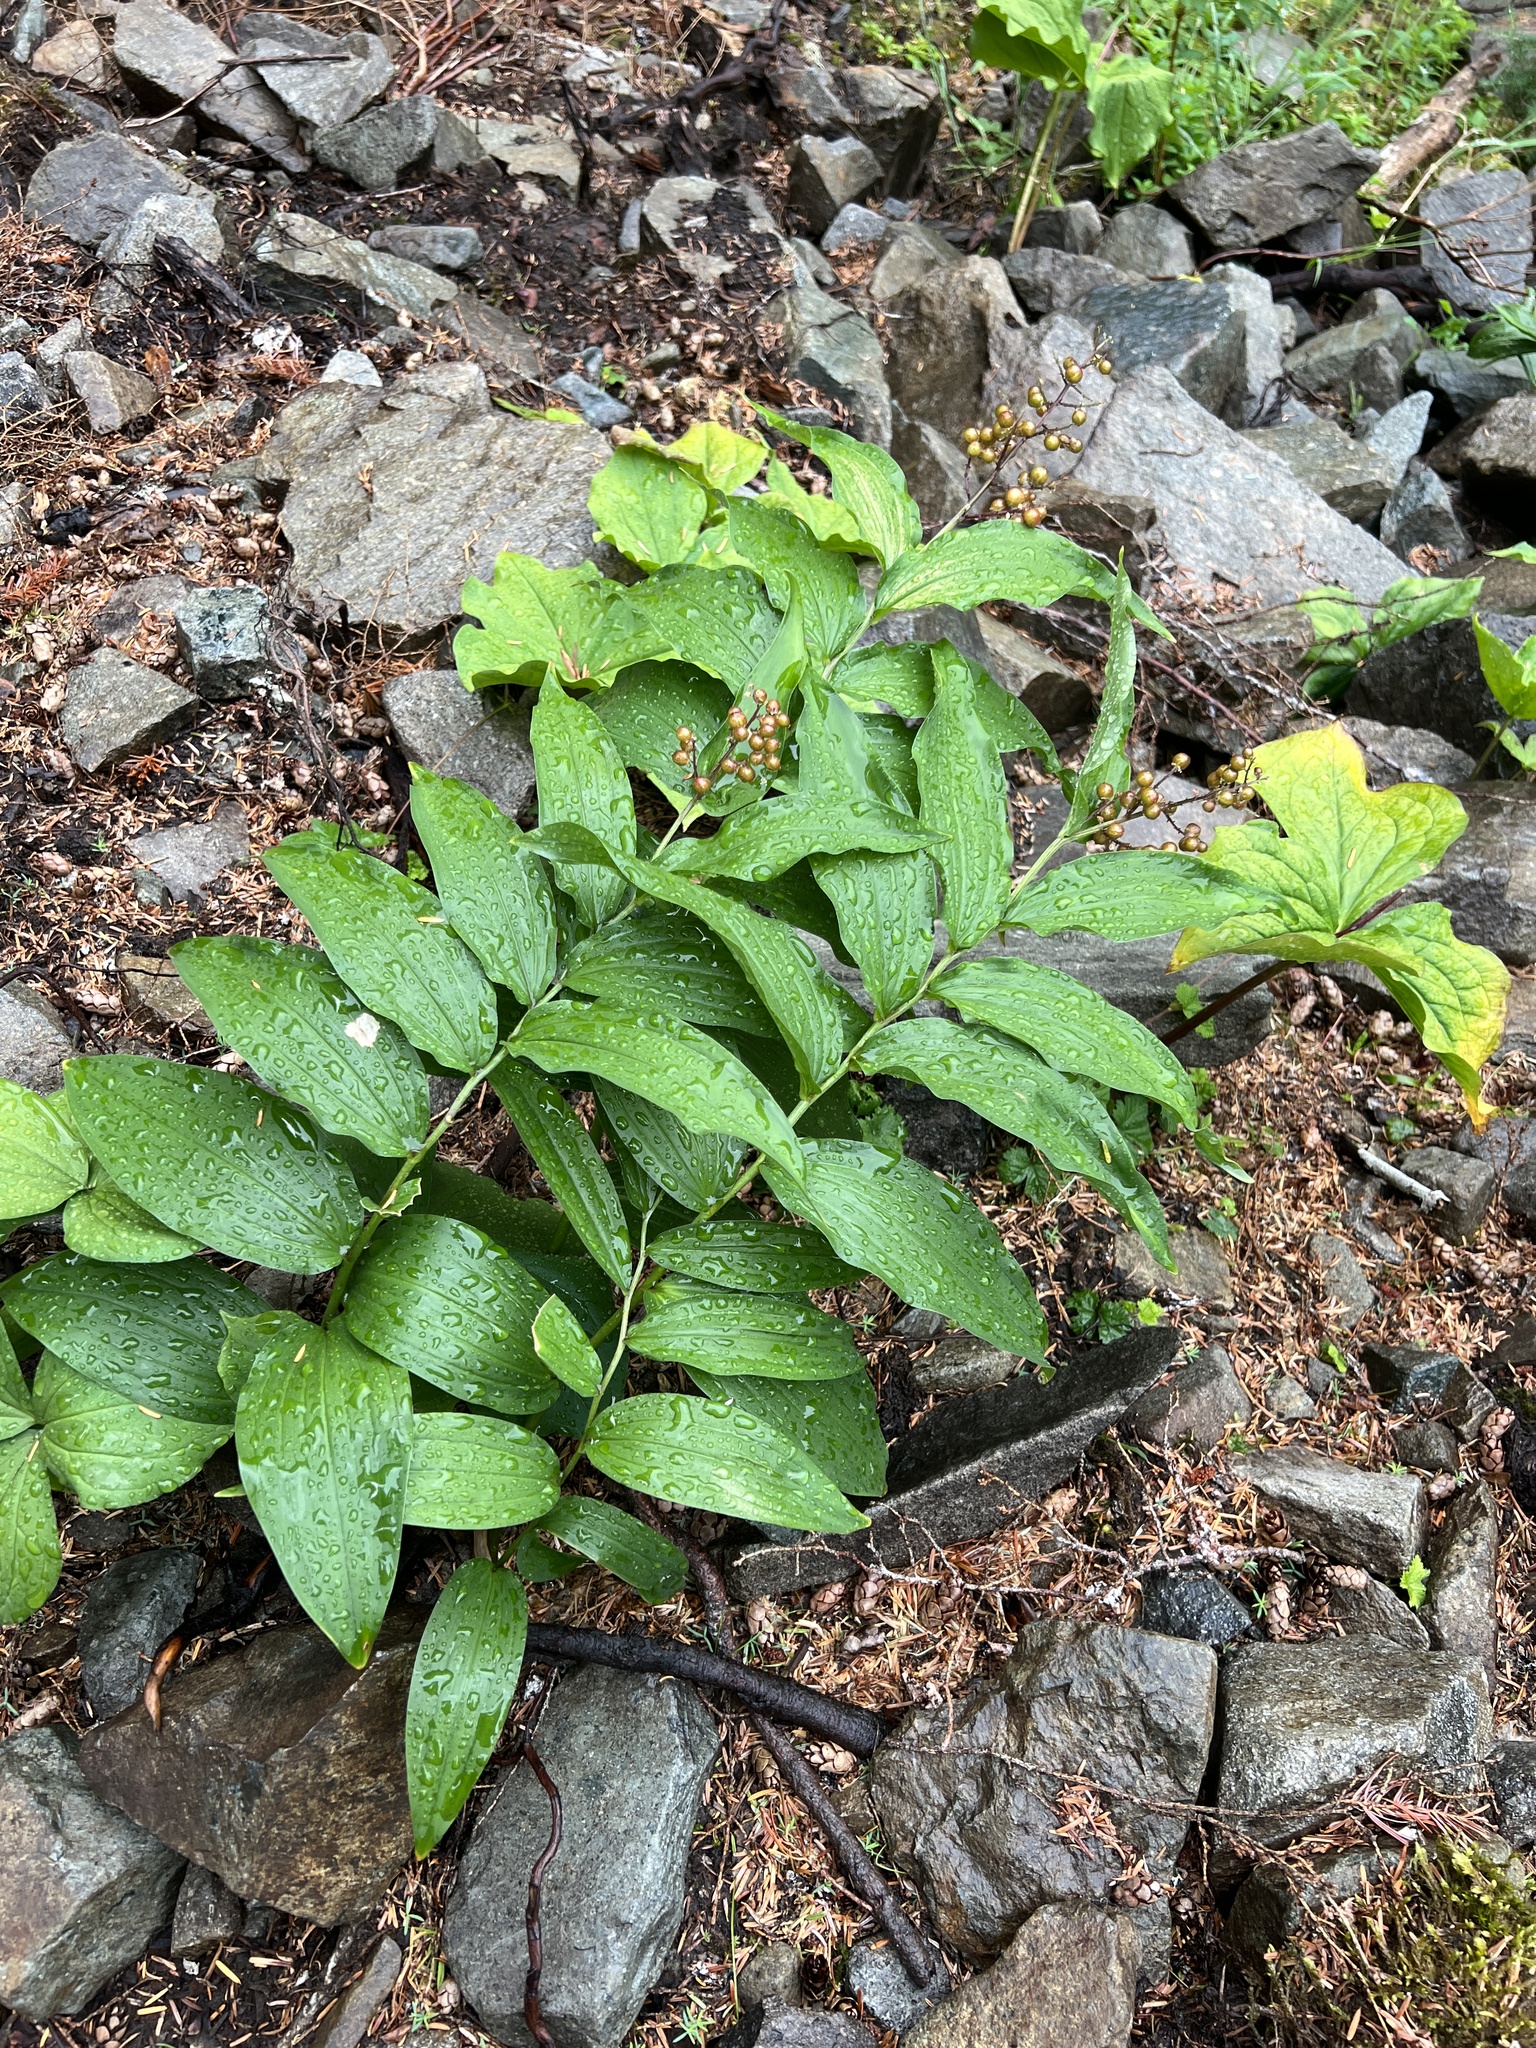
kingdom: Plantae
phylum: Tracheophyta
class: Liliopsida
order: Asparagales
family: Asparagaceae
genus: Maianthemum
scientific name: Maianthemum racemosum
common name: False spikenard
